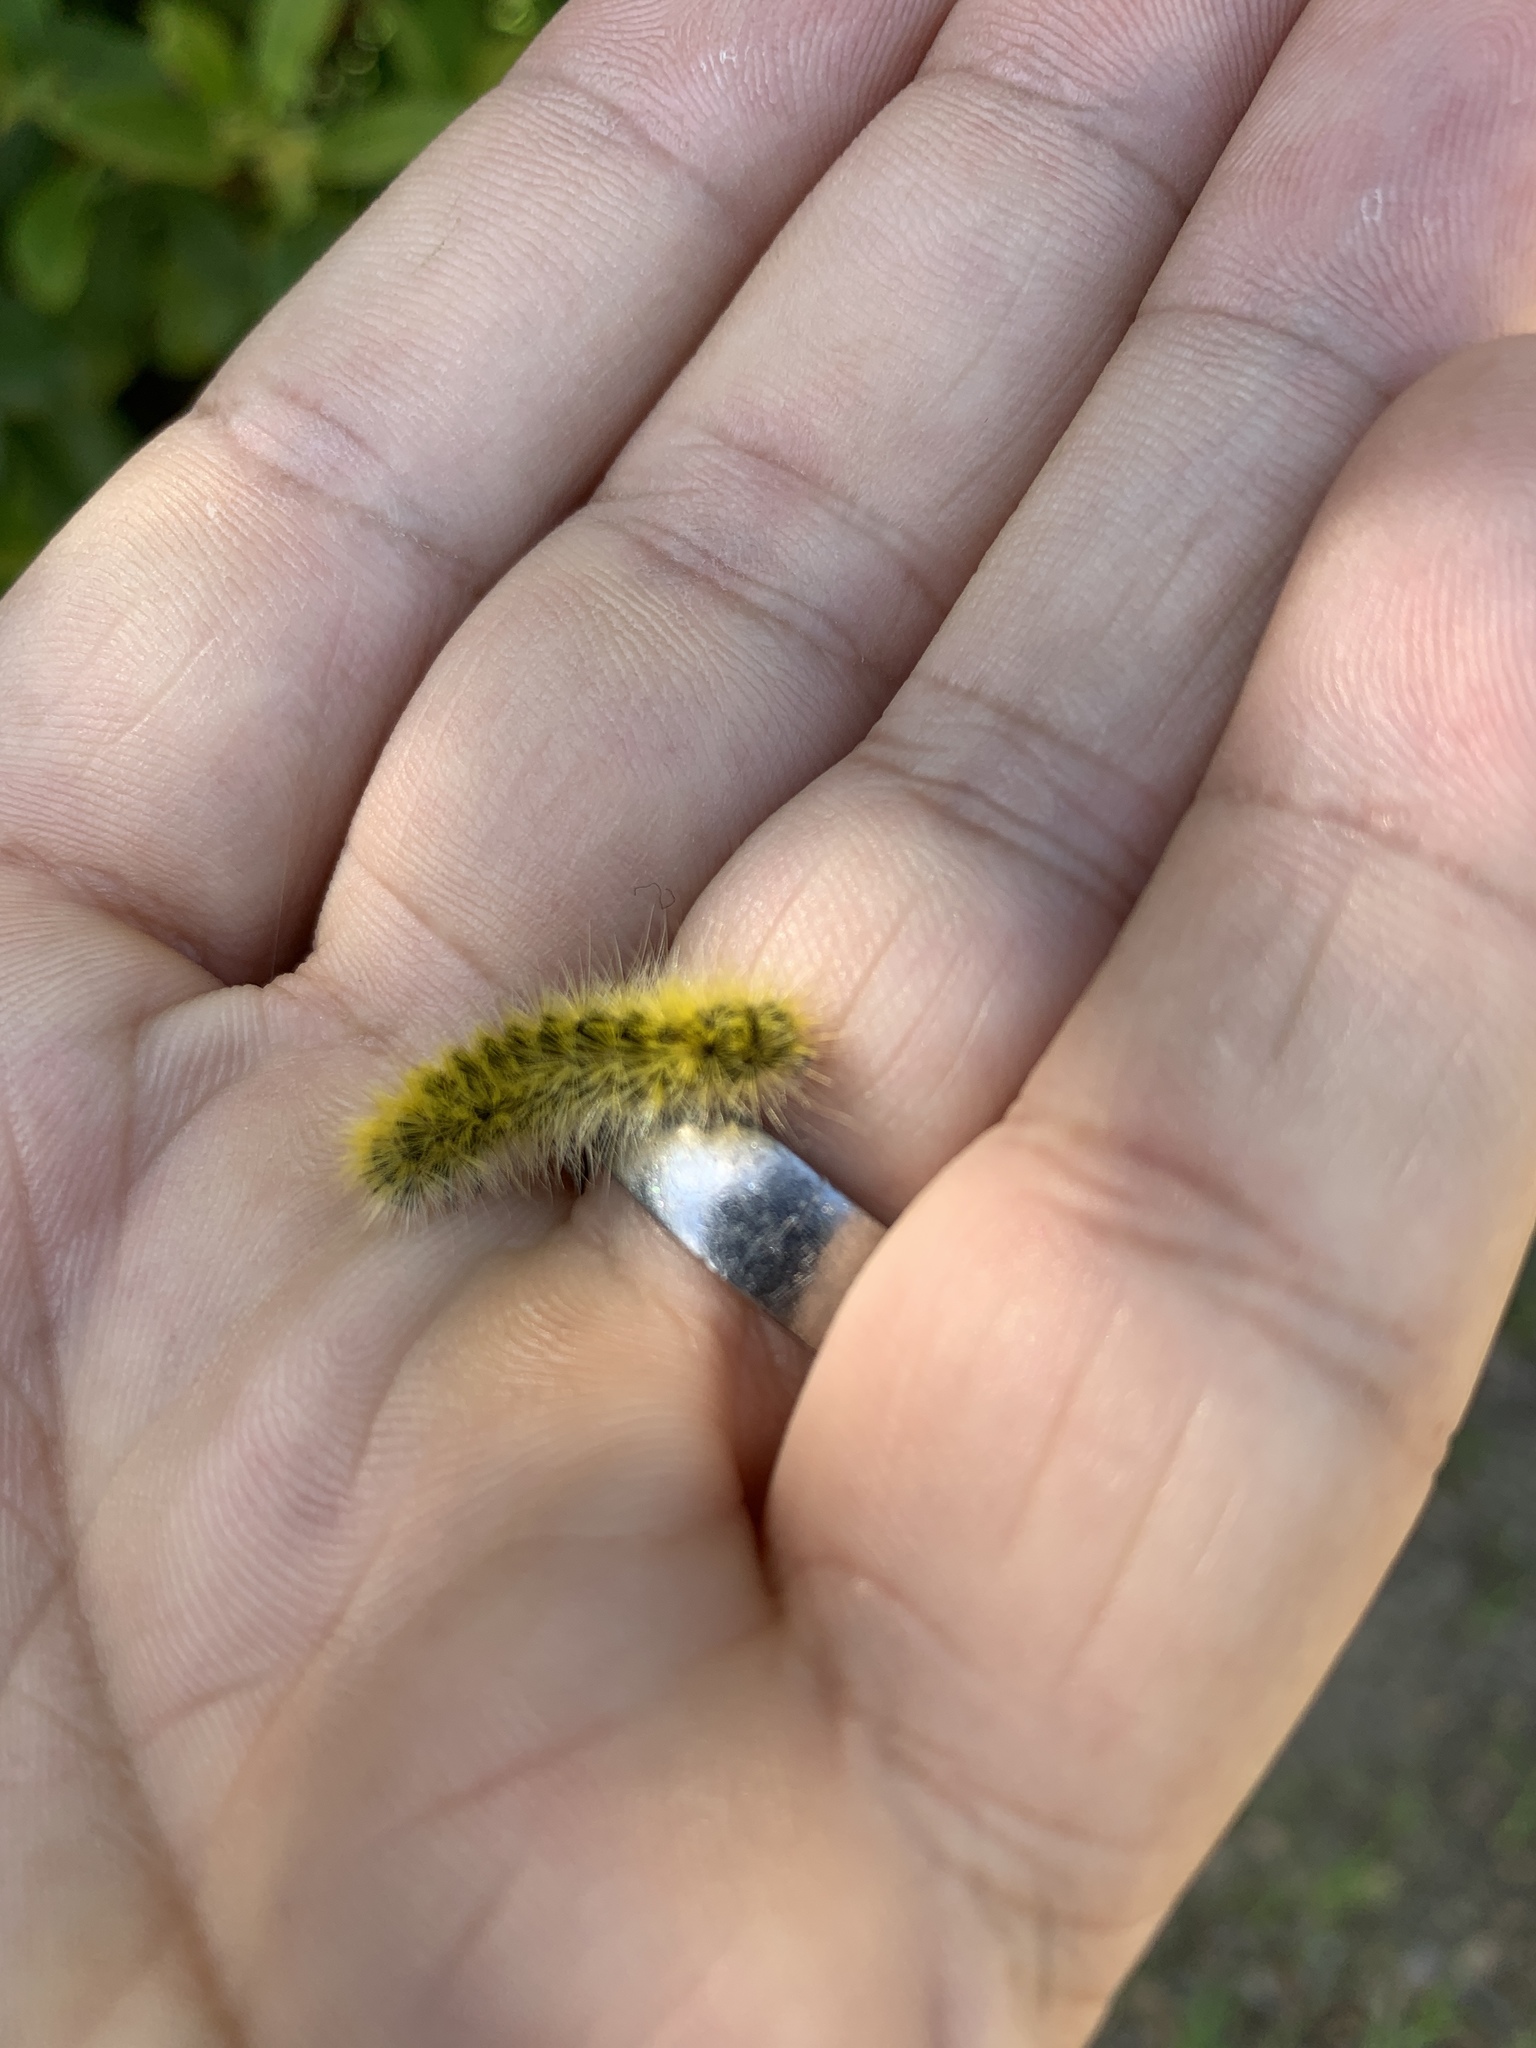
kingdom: Animalia
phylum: Arthropoda
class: Insecta
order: Lepidoptera
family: Erebidae
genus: Lophocampa
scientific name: Lophocampa argentata
